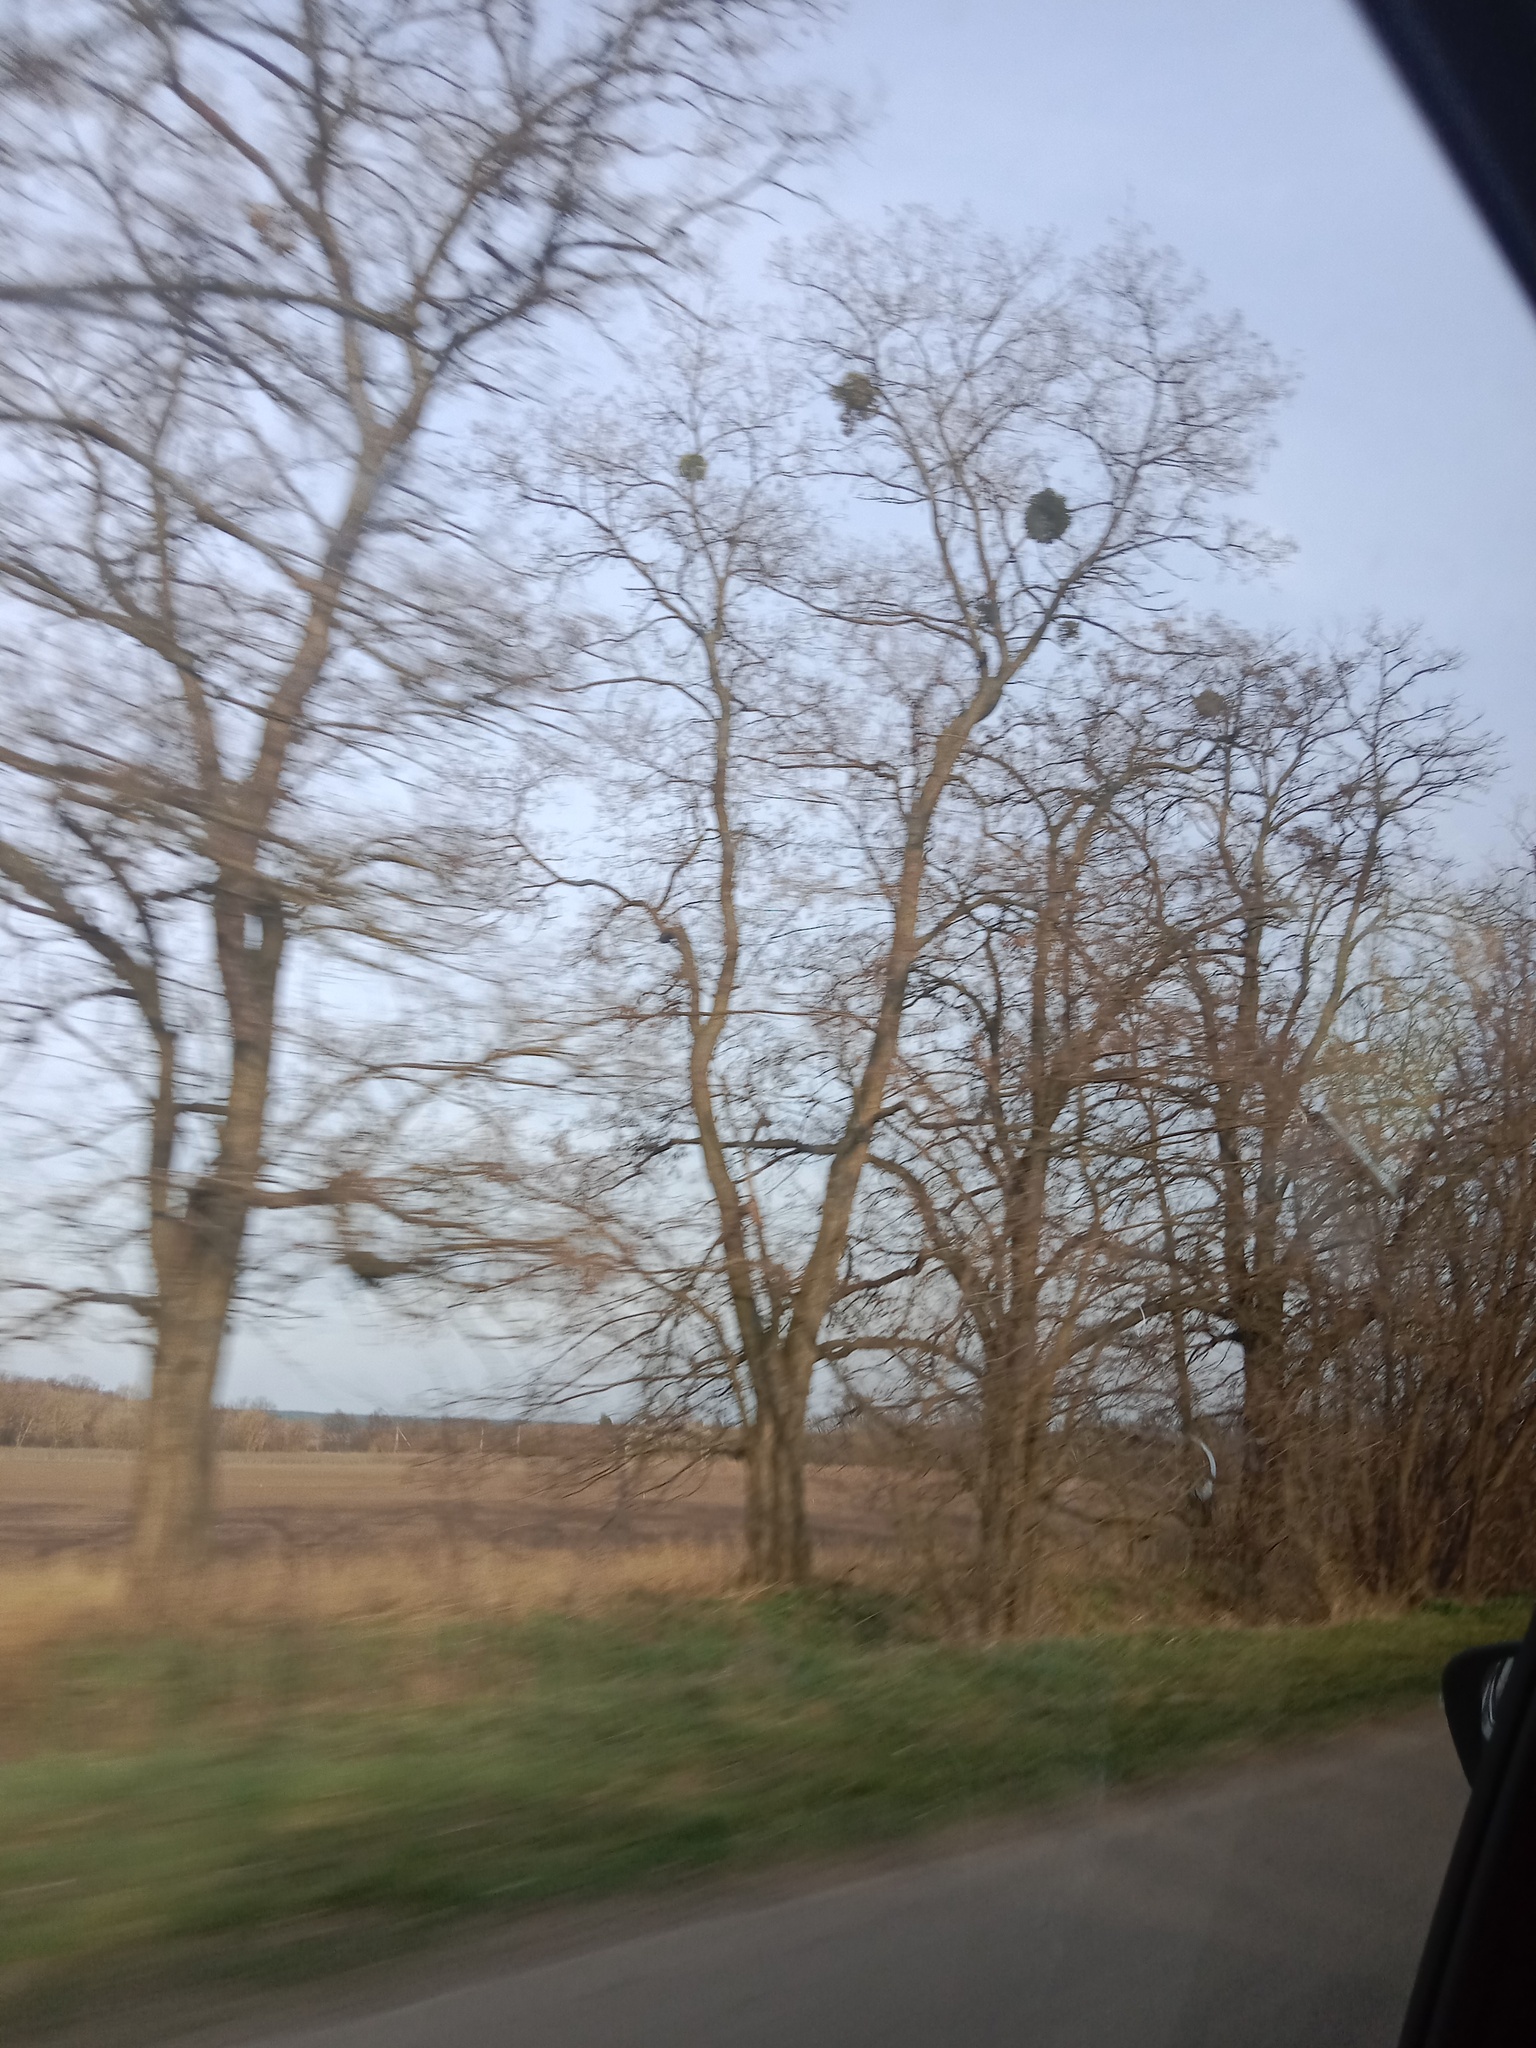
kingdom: Plantae
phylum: Tracheophyta
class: Magnoliopsida
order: Santalales
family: Viscaceae
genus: Viscum
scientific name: Viscum album
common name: Mistletoe
